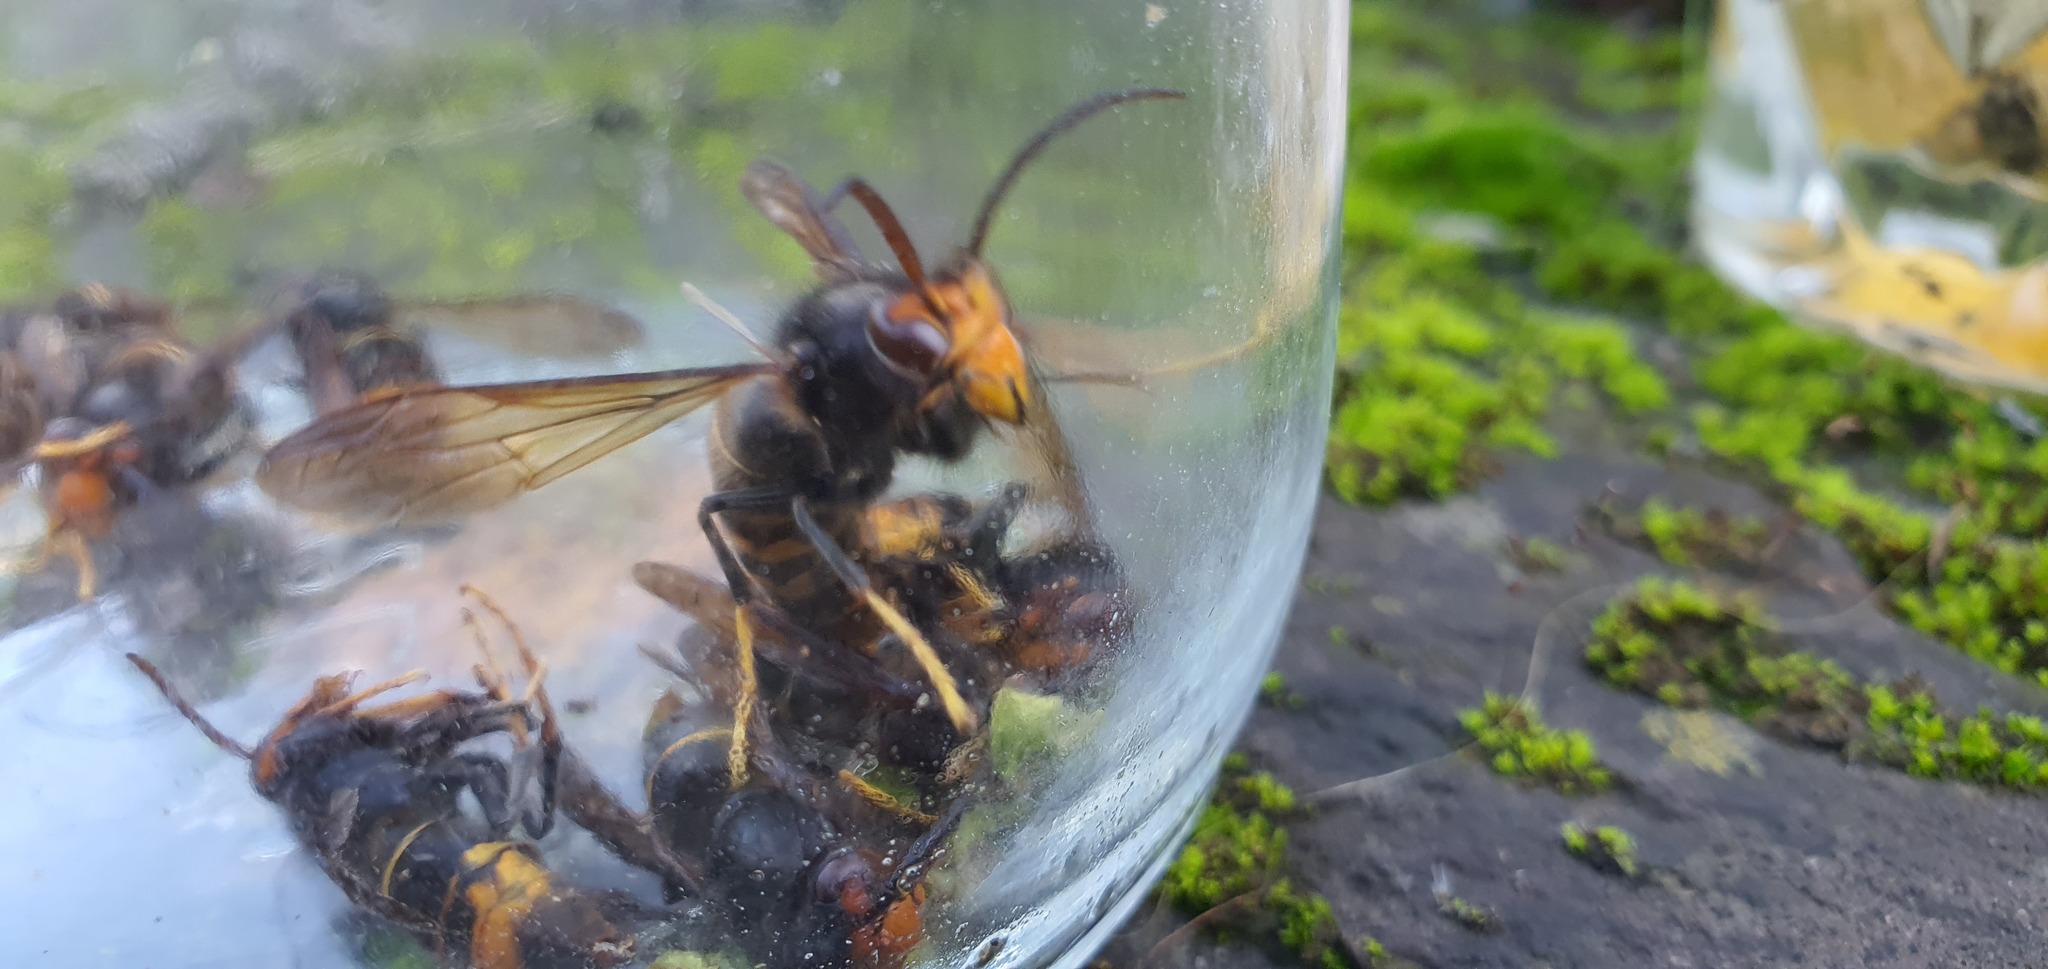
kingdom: Animalia
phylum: Arthropoda
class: Insecta
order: Hymenoptera
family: Vespidae
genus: Vespa
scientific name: Vespa velutina
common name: Asian hornet
